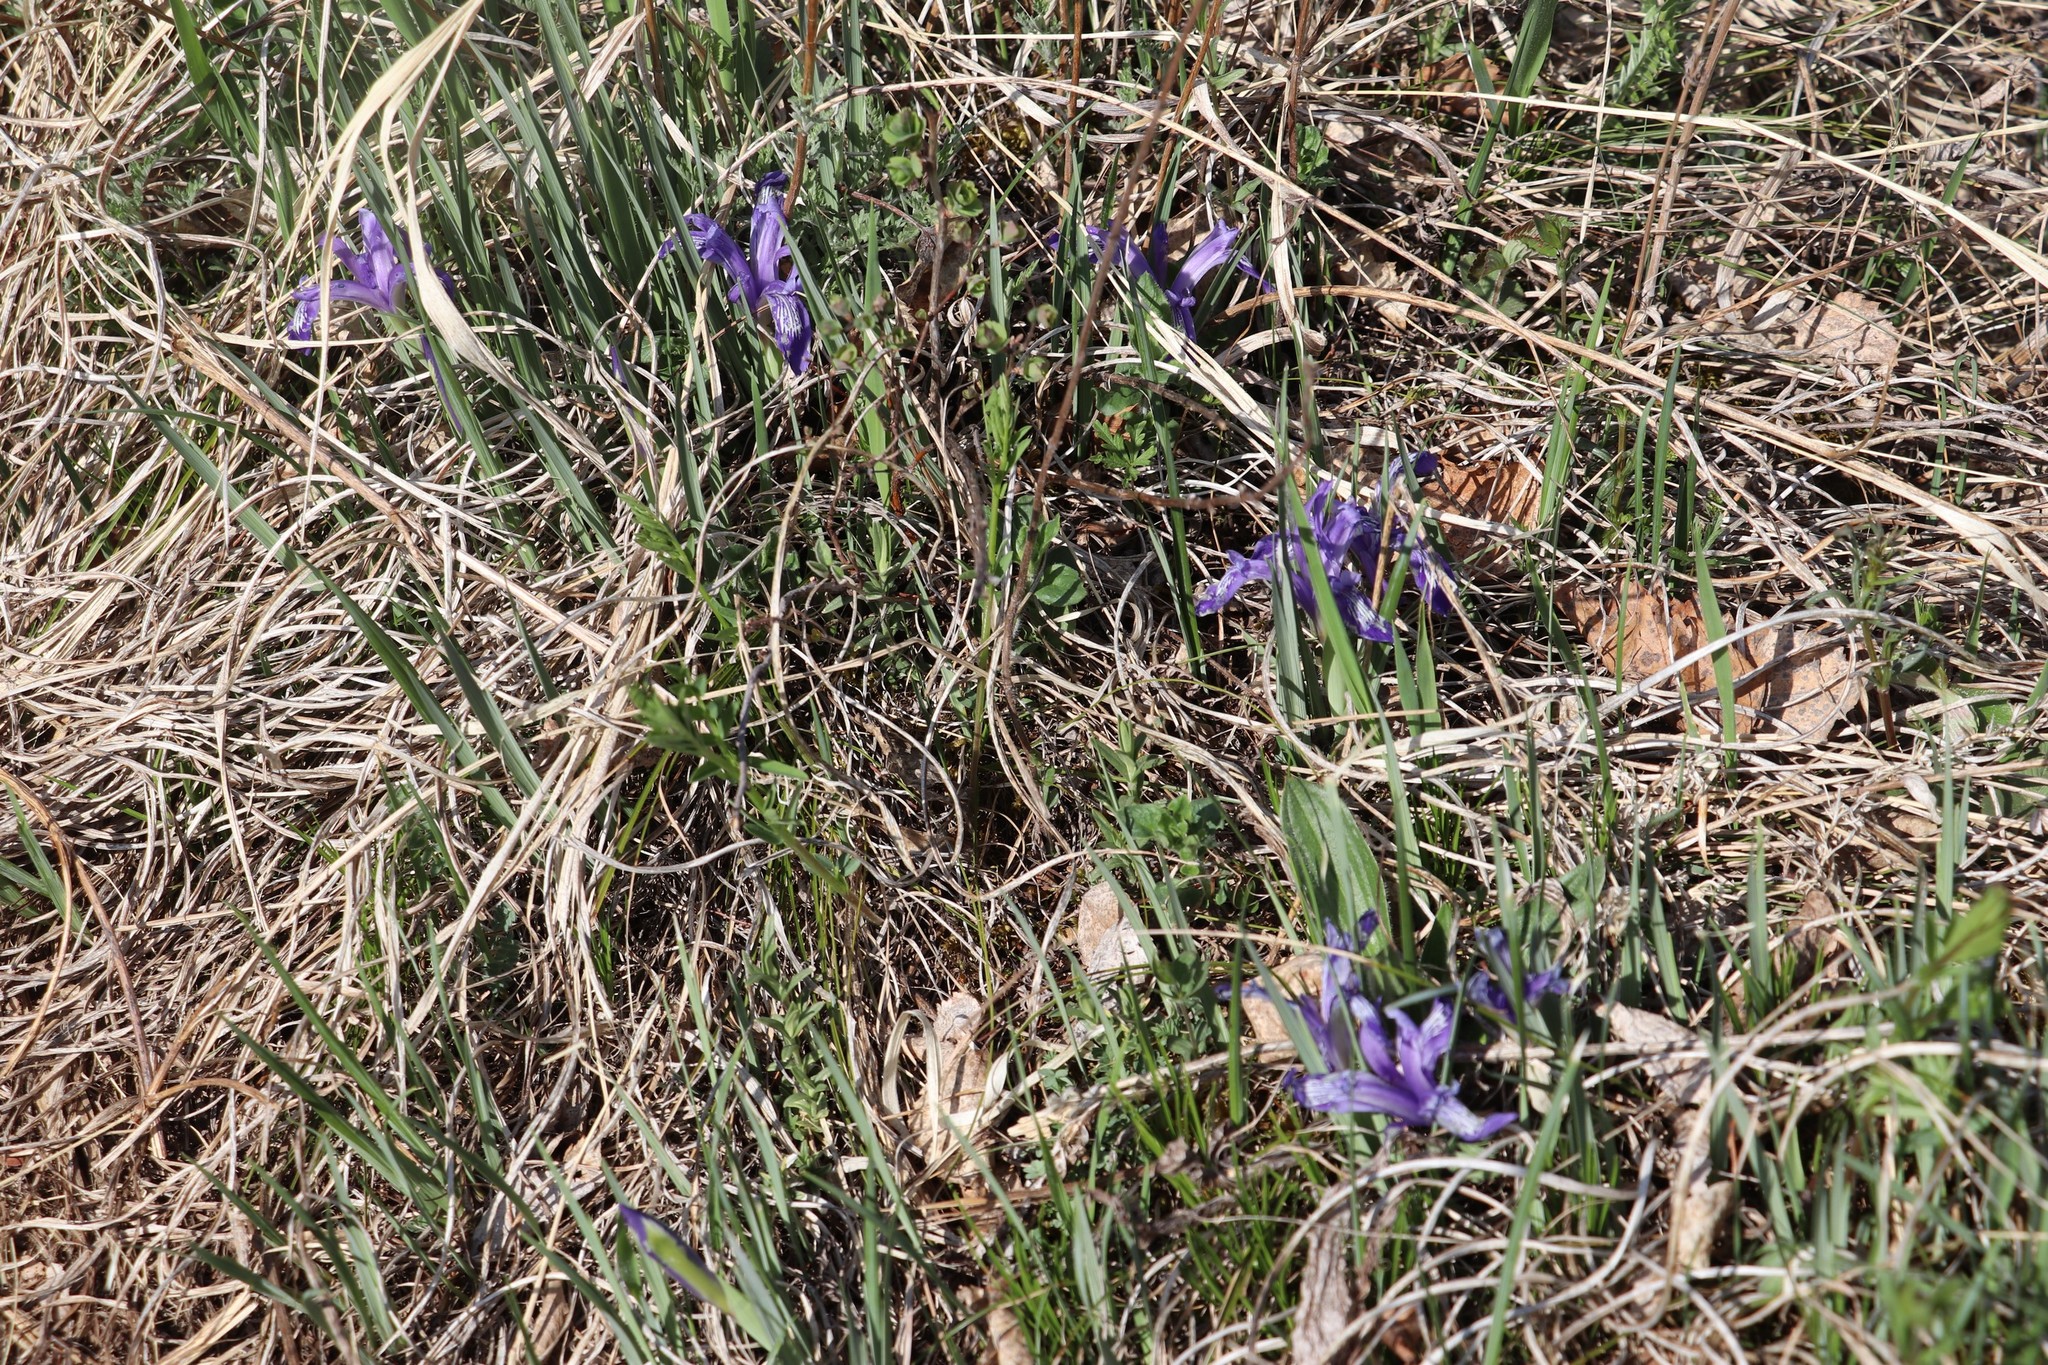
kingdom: Plantae
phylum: Tracheophyta
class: Liliopsida
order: Asparagales
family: Iridaceae
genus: Iris
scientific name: Iris ruthenica
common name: Purple-bract iris
